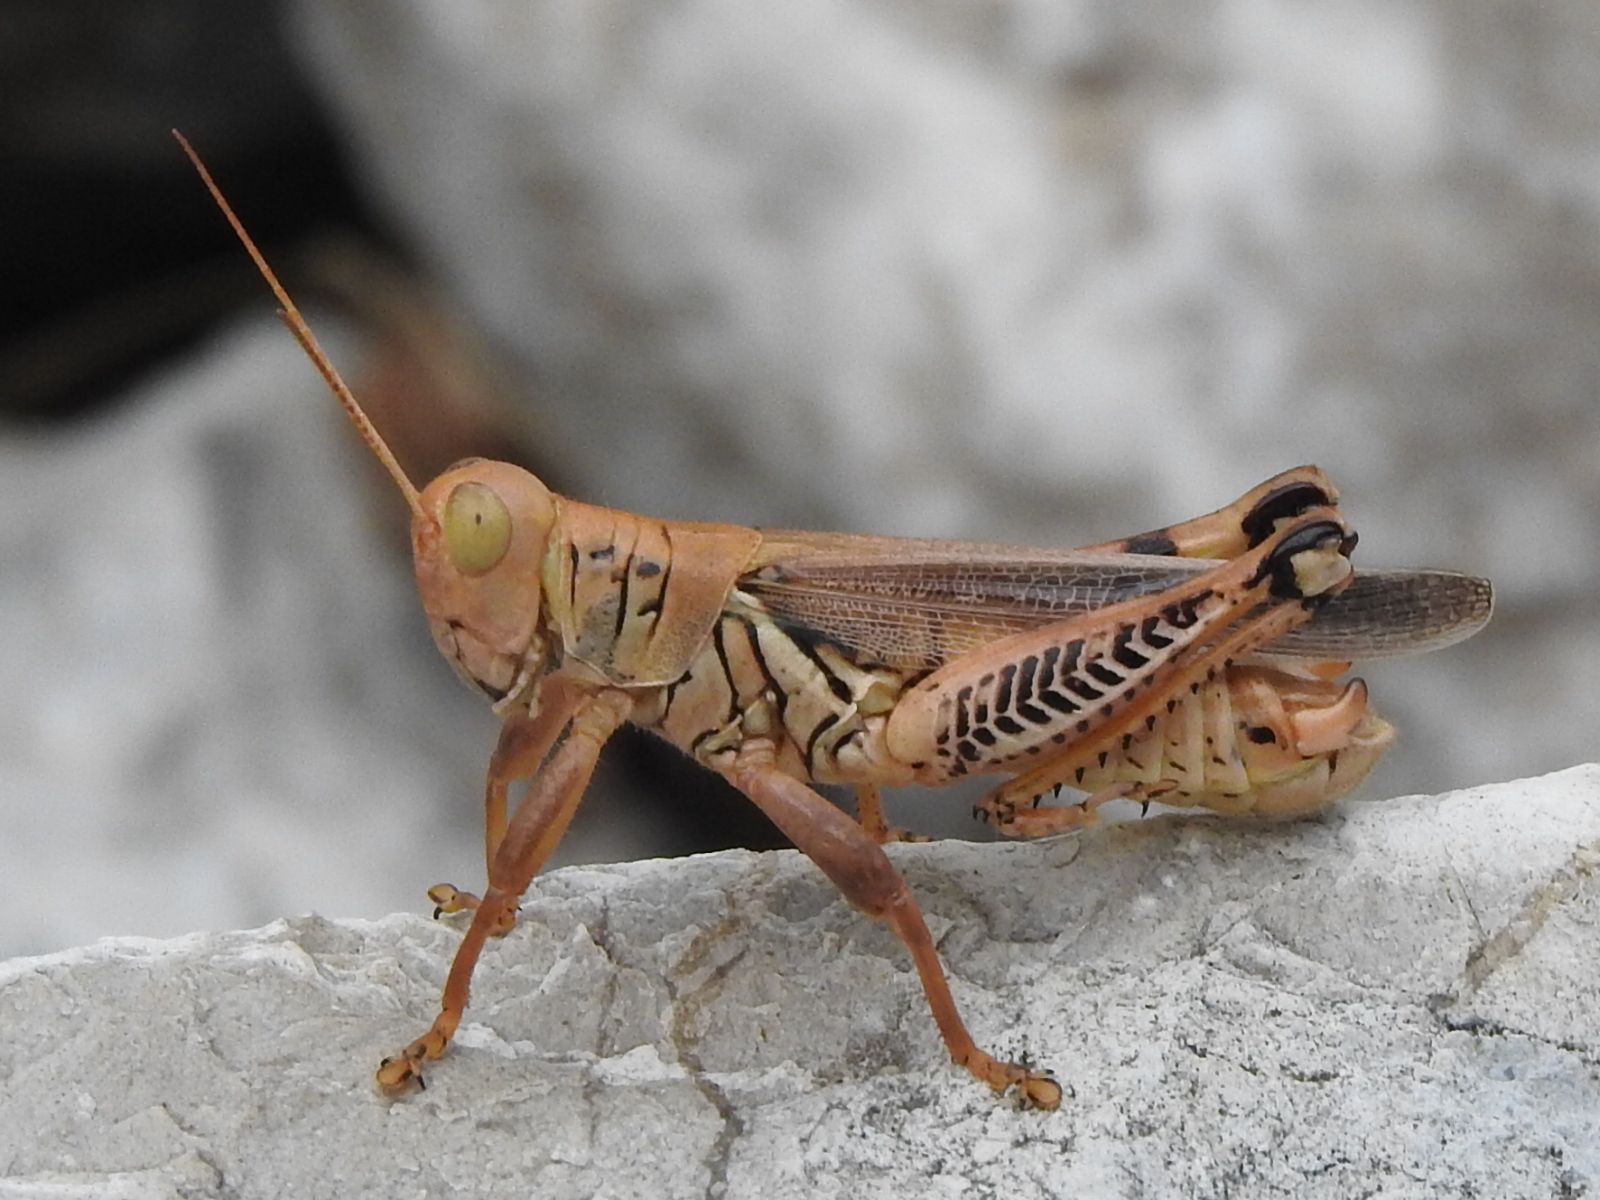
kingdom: Animalia
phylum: Arthropoda
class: Insecta
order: Orthoptera
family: Acrididae
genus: Melanoplus
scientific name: Melanoplus differentialis
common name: Differential grasshopper
